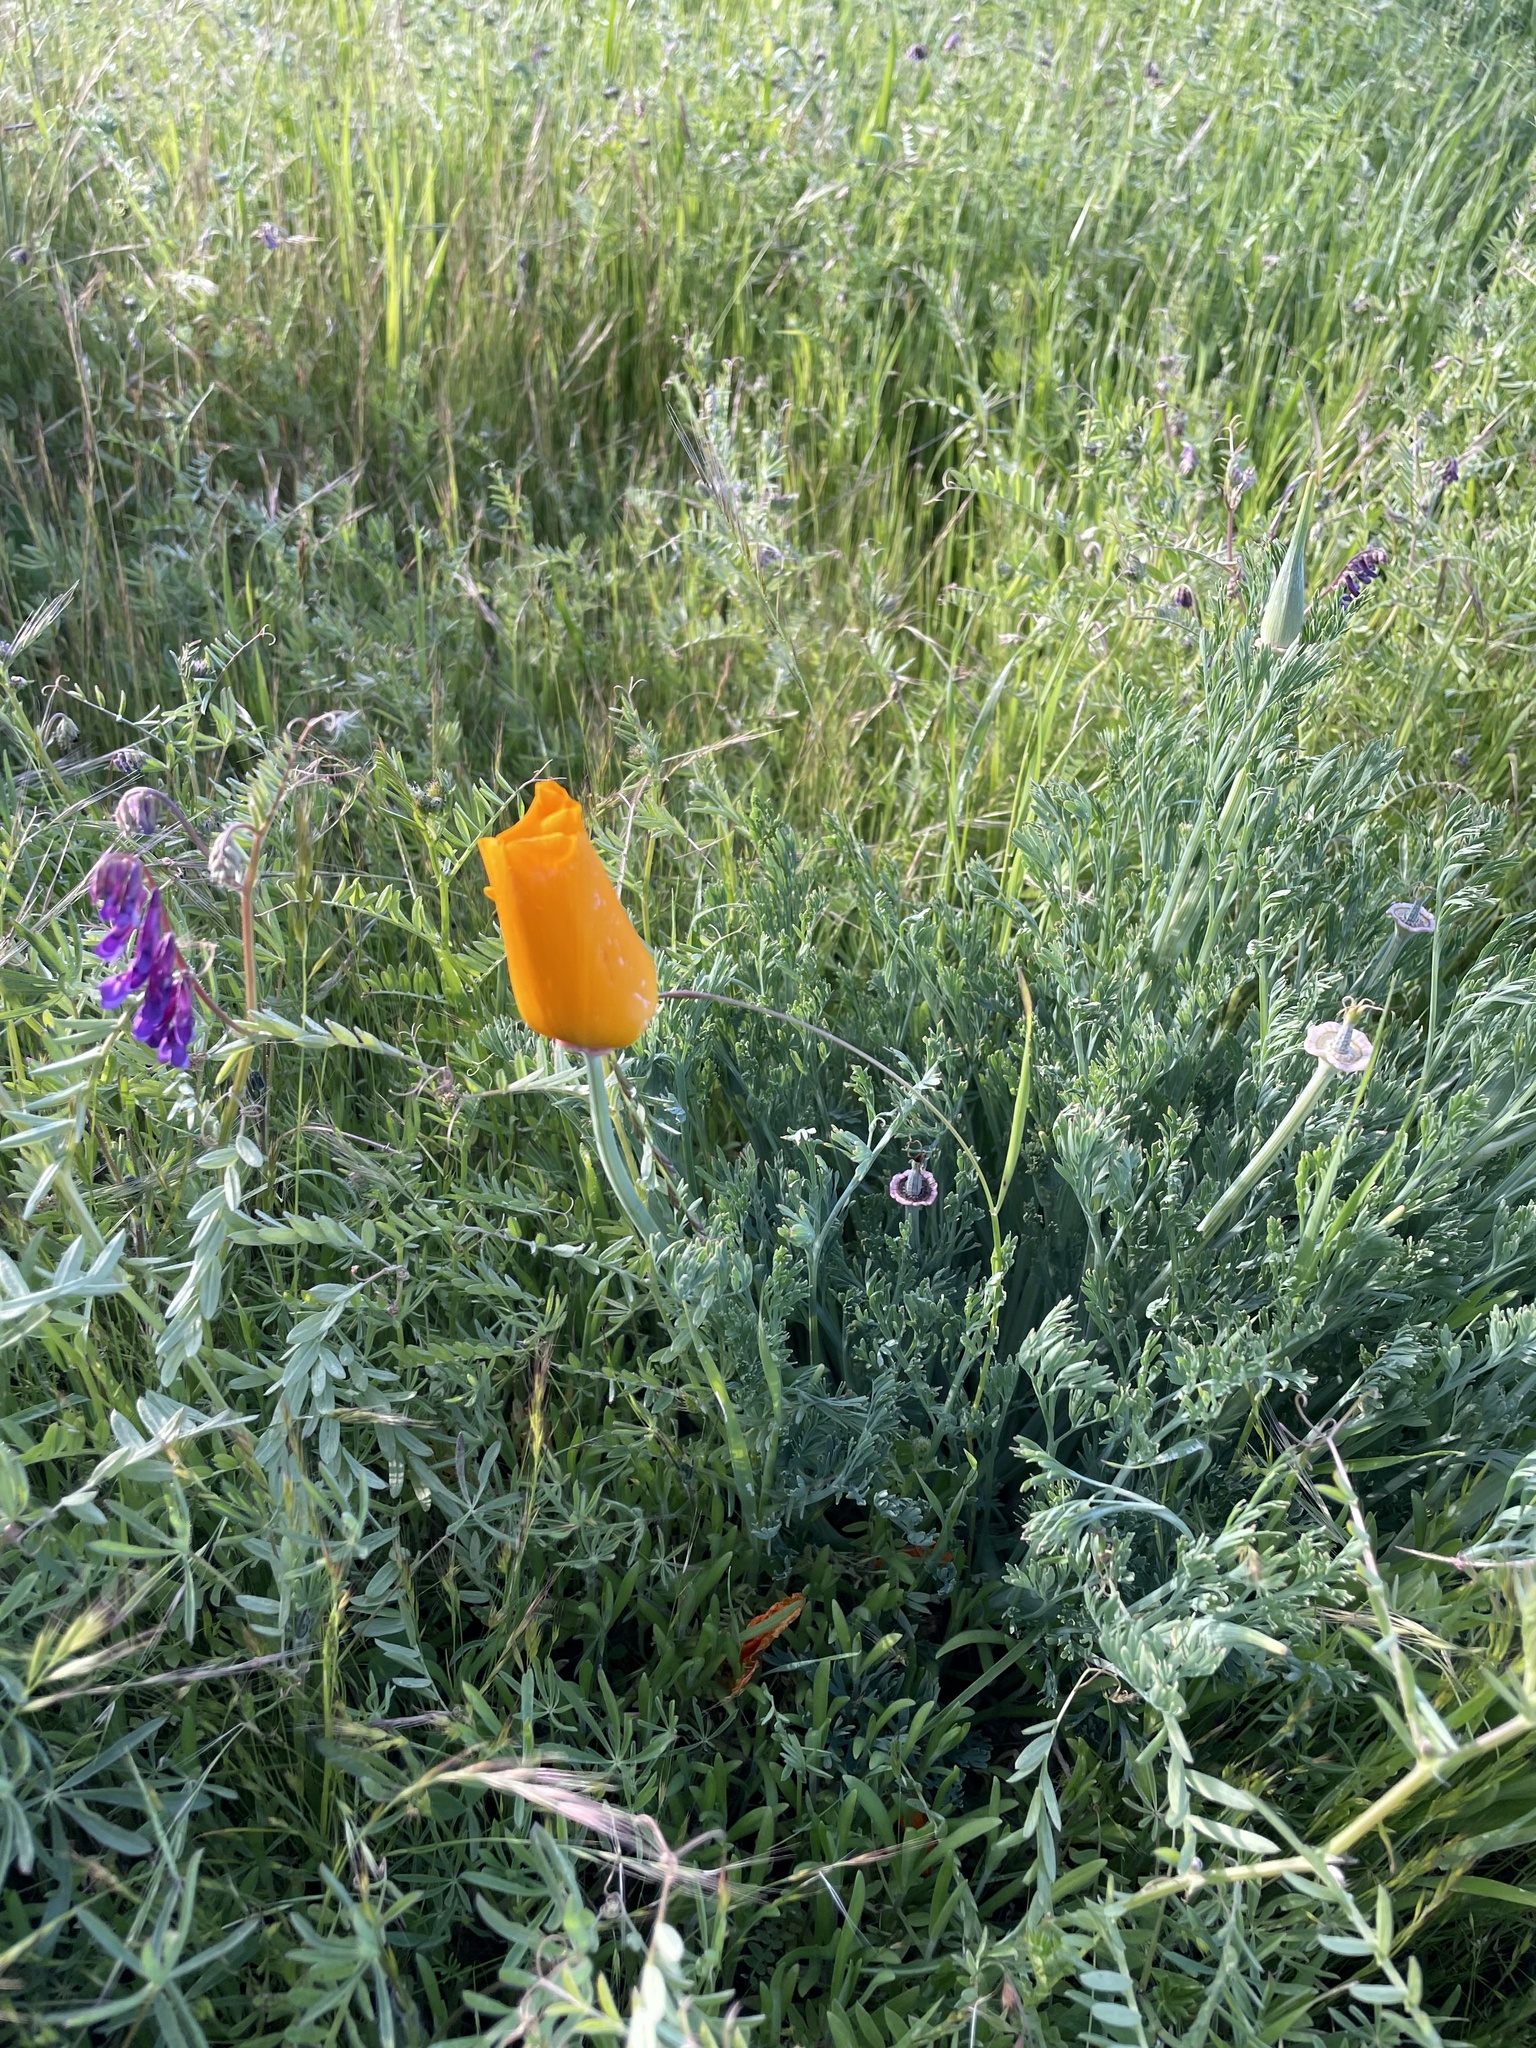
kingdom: Plantae
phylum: Tracheophyta
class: Magnoliopsida
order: Ranunculales
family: Papaveraceae
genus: Eschscholzia
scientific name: Eschscholzia californica
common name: California poppy
